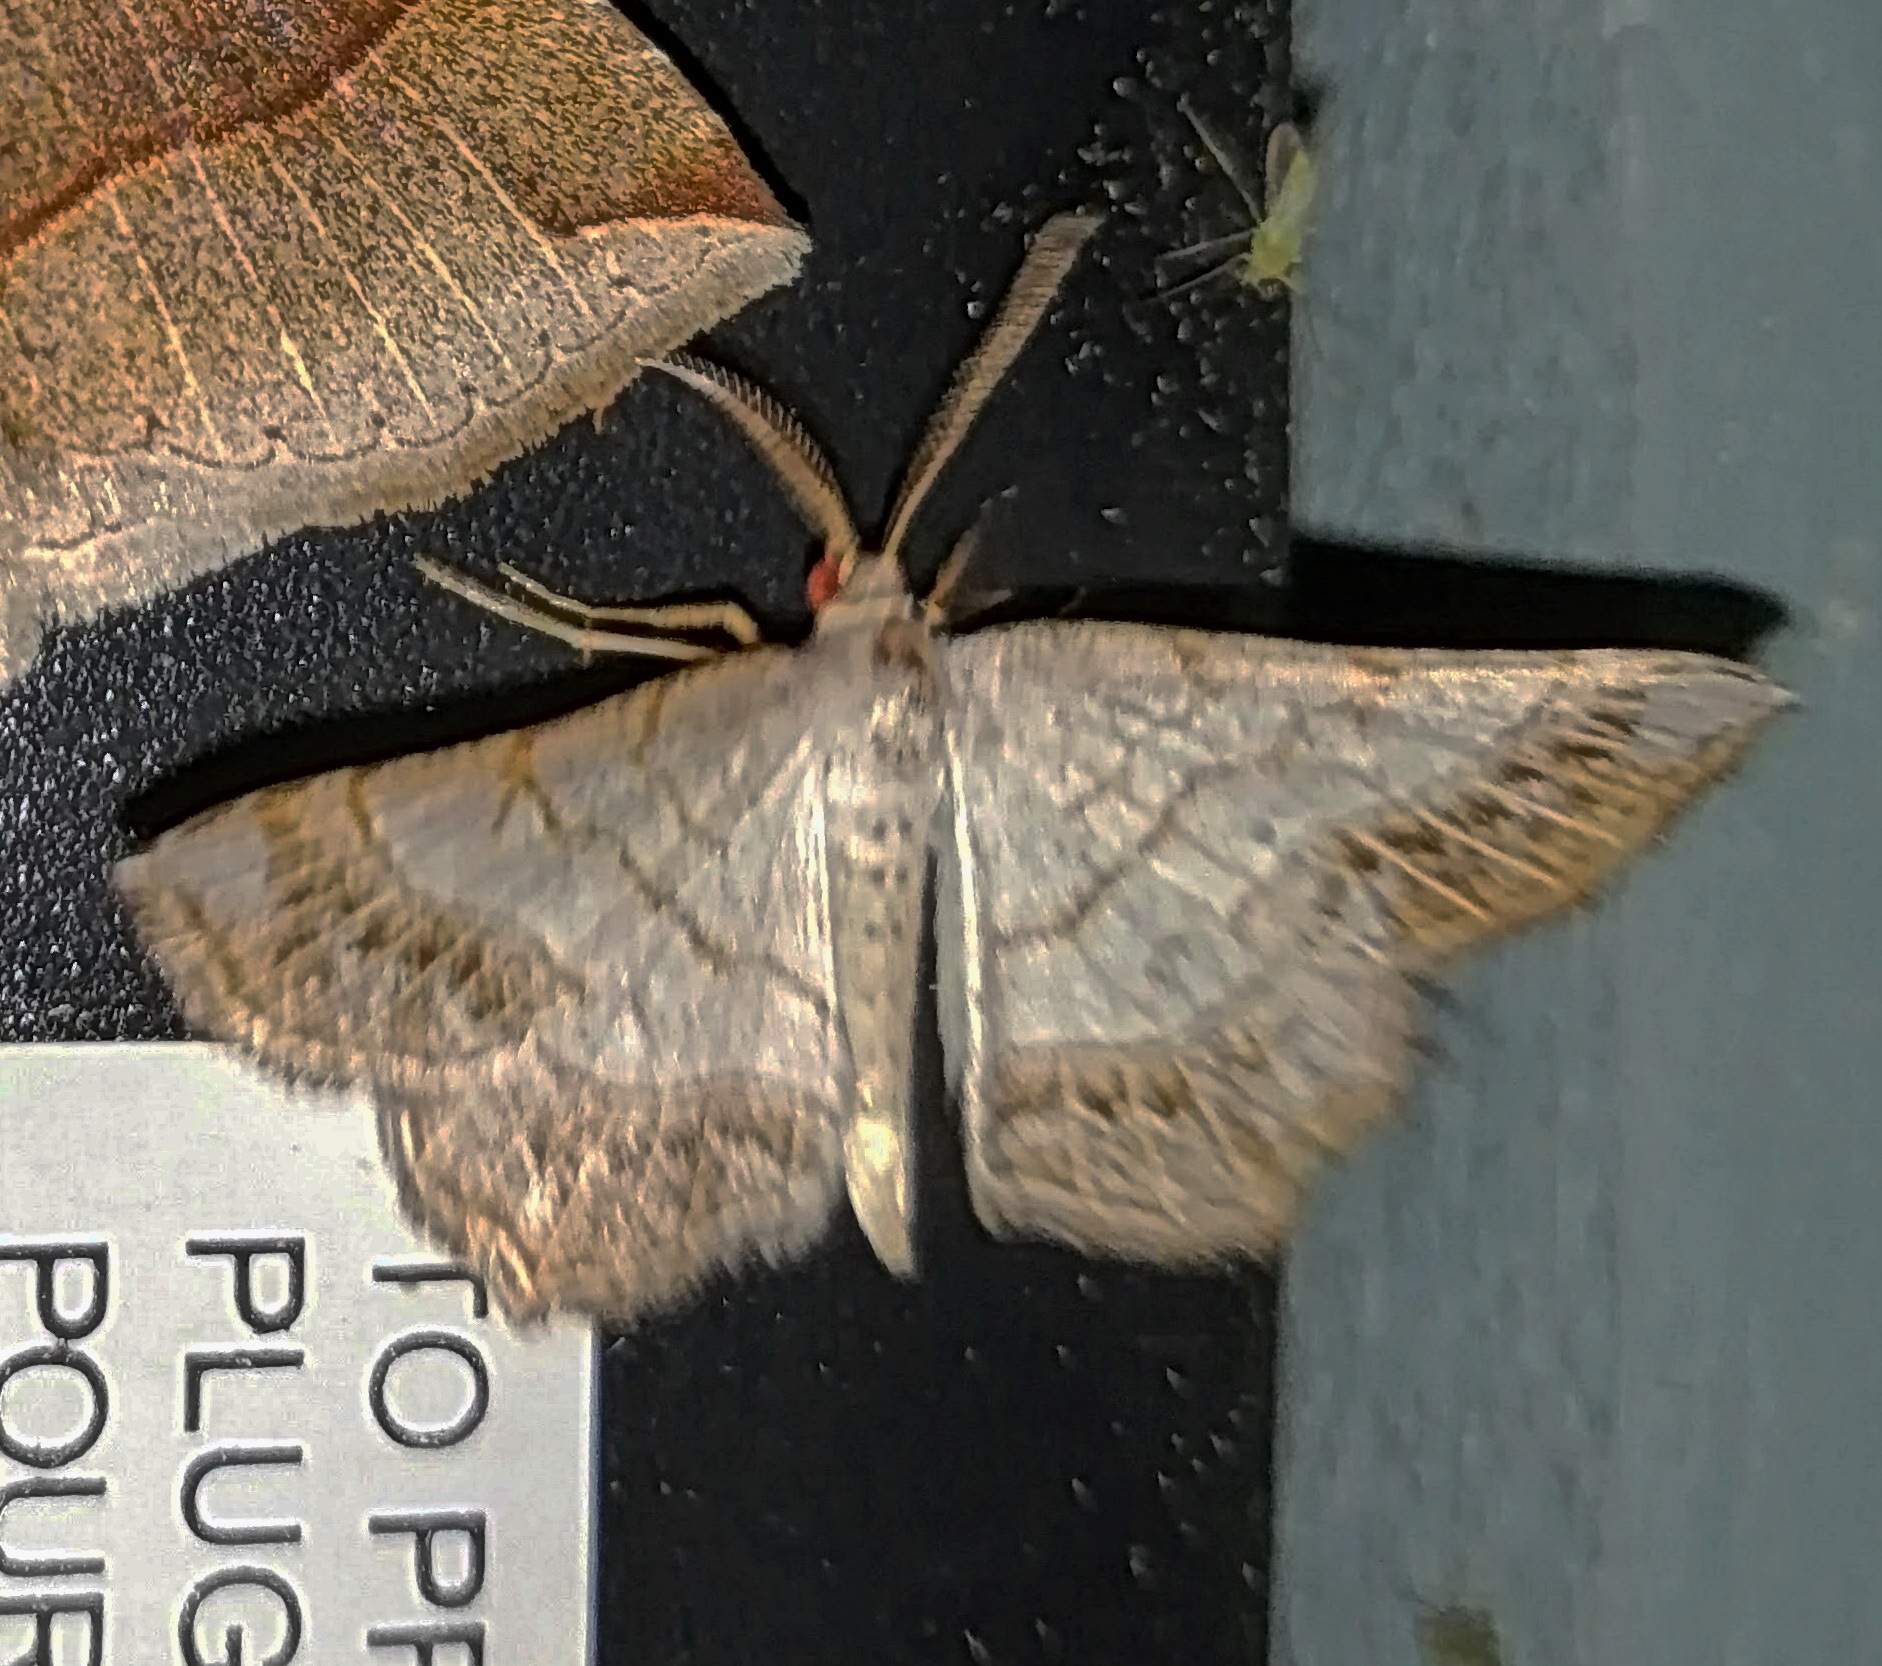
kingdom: Animalia
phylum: Arthropoda
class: Insecta
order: Lepidoptera
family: Geometridae
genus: Eumacaria
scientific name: Eumacaria madopata
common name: Brown-bordered geometer
